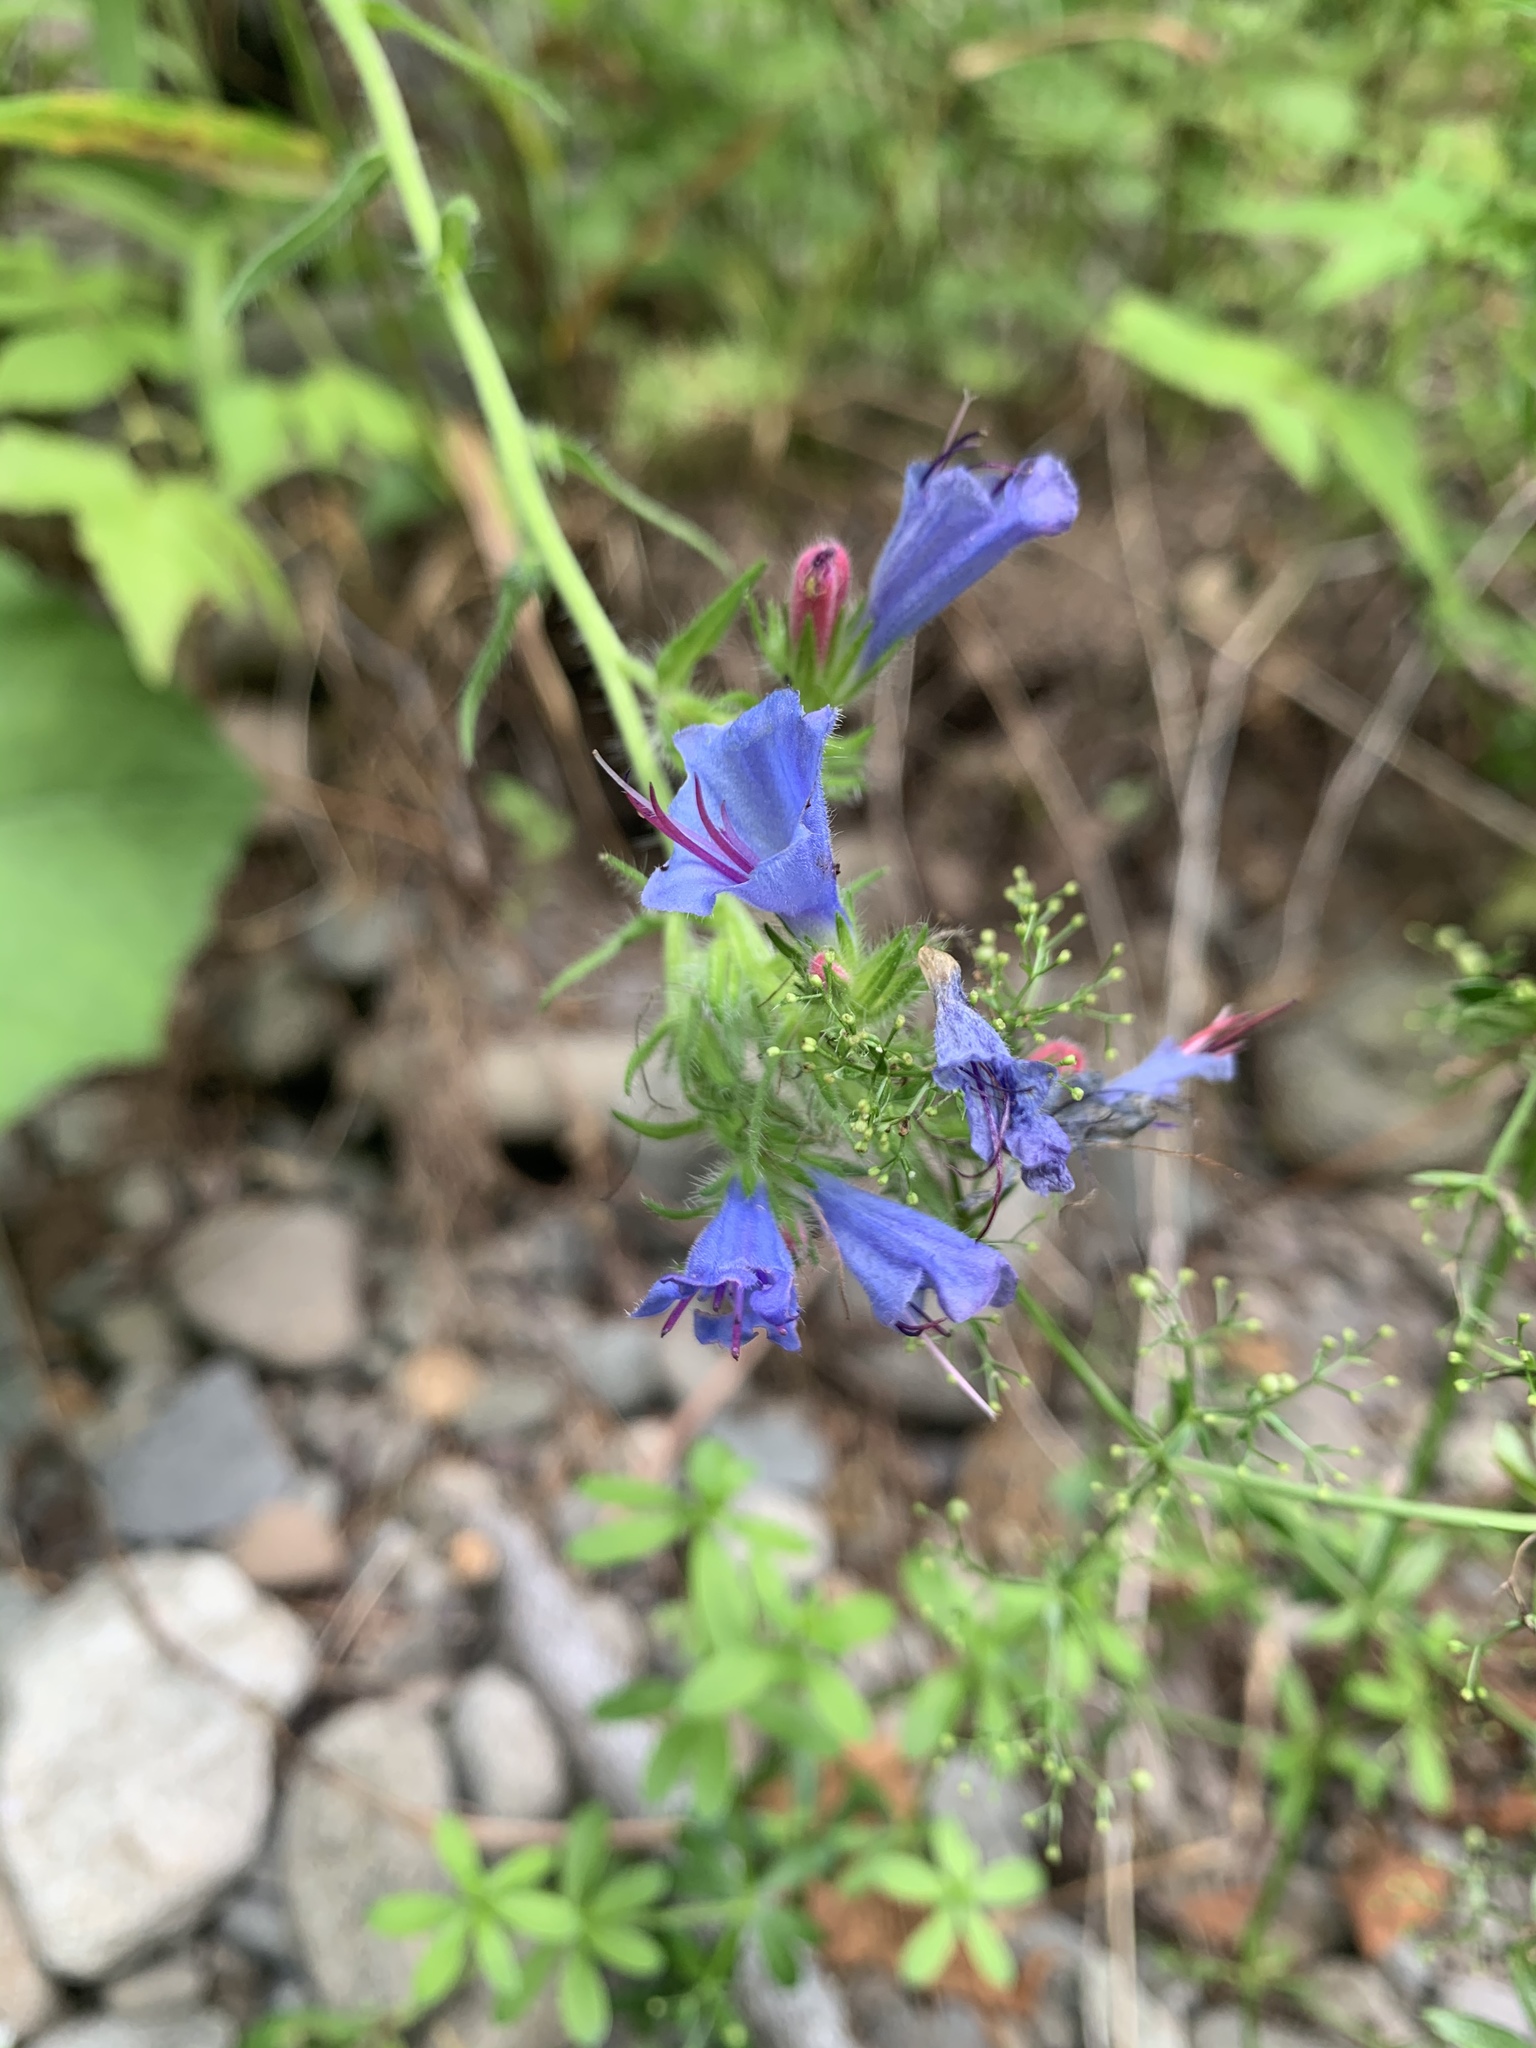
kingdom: Plantae
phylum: Tracheophyta
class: Magnoliopsida
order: Boraginales
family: Boraginaceae
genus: Echium
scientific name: Echium vulgare
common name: Common viper's bugloss
